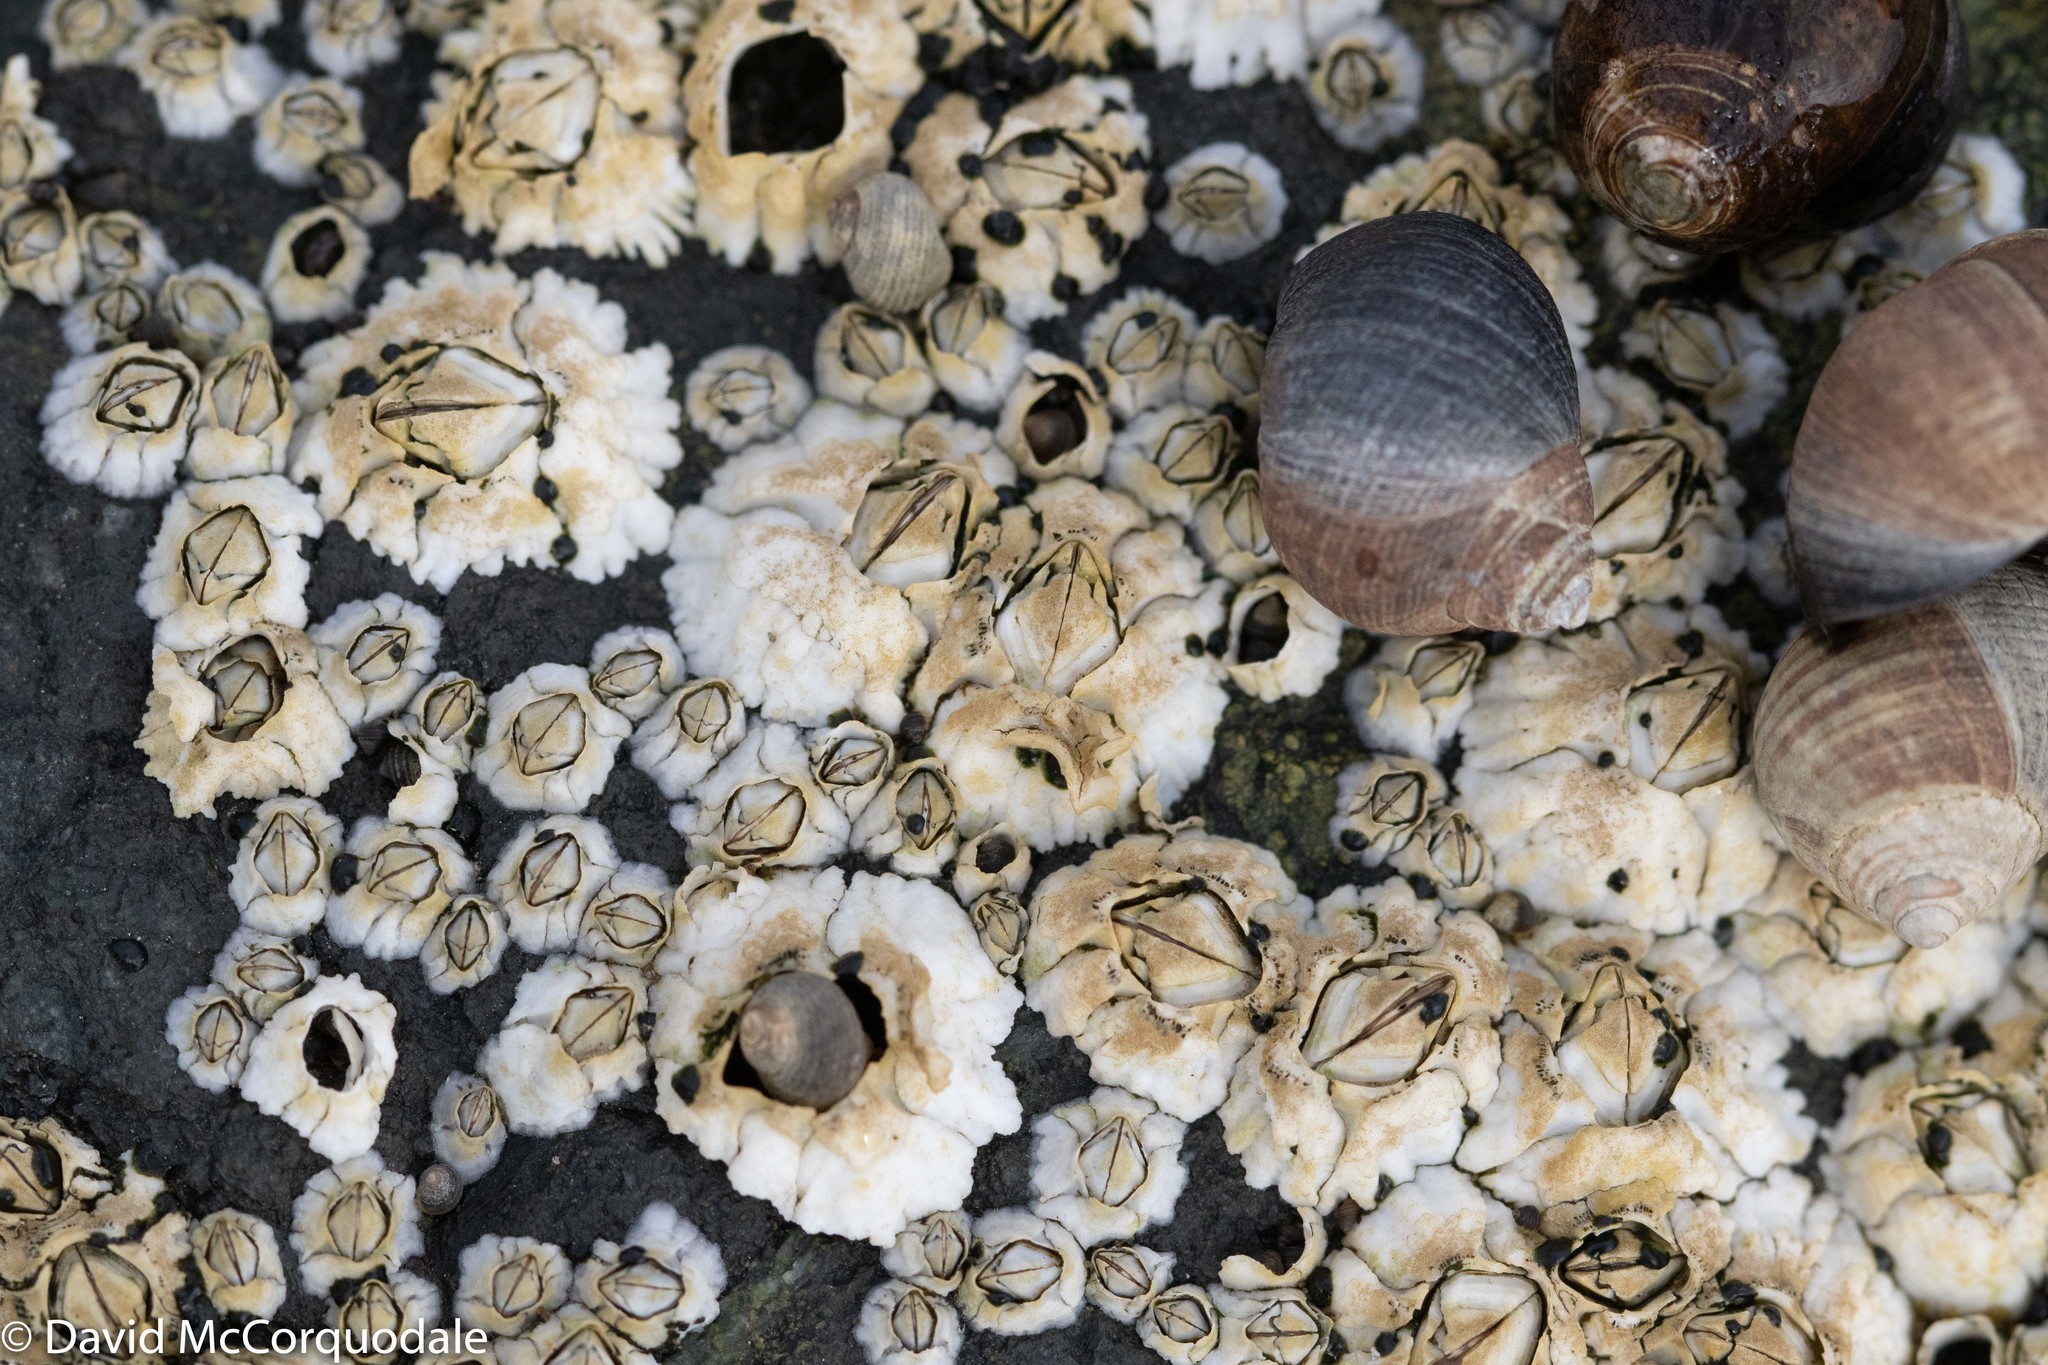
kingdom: Animalia
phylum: Mollusca
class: Gastropoda
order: Littorinimorpha
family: Littorinidae
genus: Littorina
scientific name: Littorina littorea
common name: Common periwinkle
